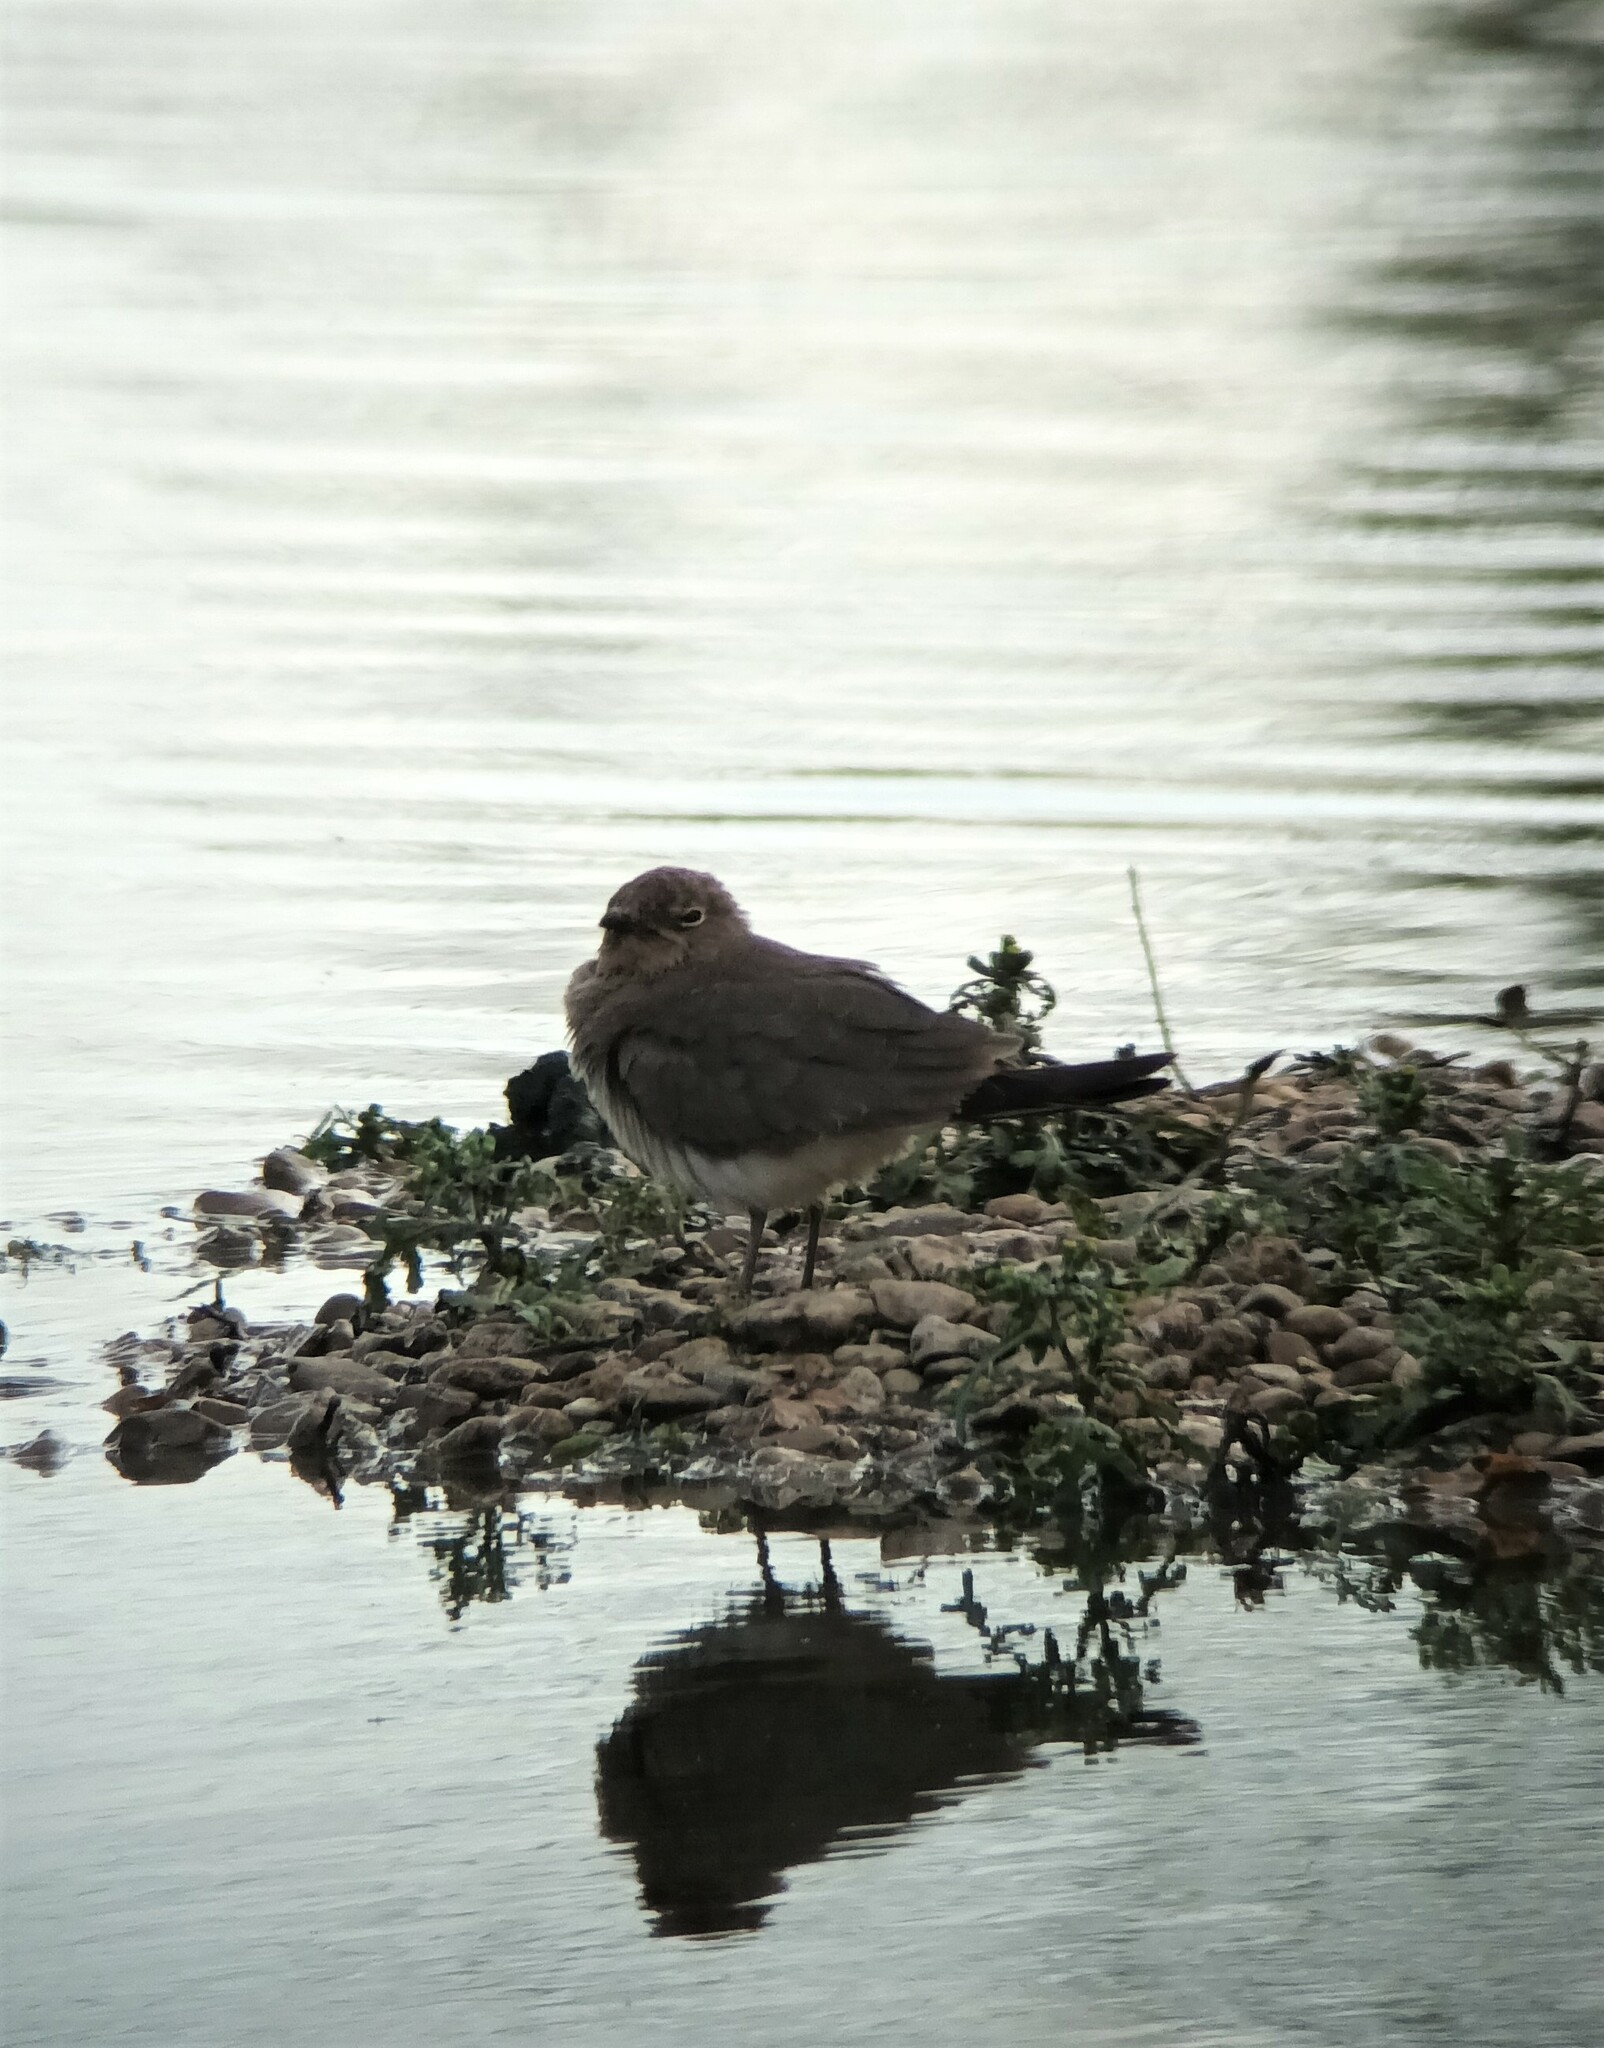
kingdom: Animalia
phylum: Chordata
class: Aves
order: Charadriiformes
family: Glareolidae
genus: Glareola
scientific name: Glareola pratincola
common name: Collared pratincole
